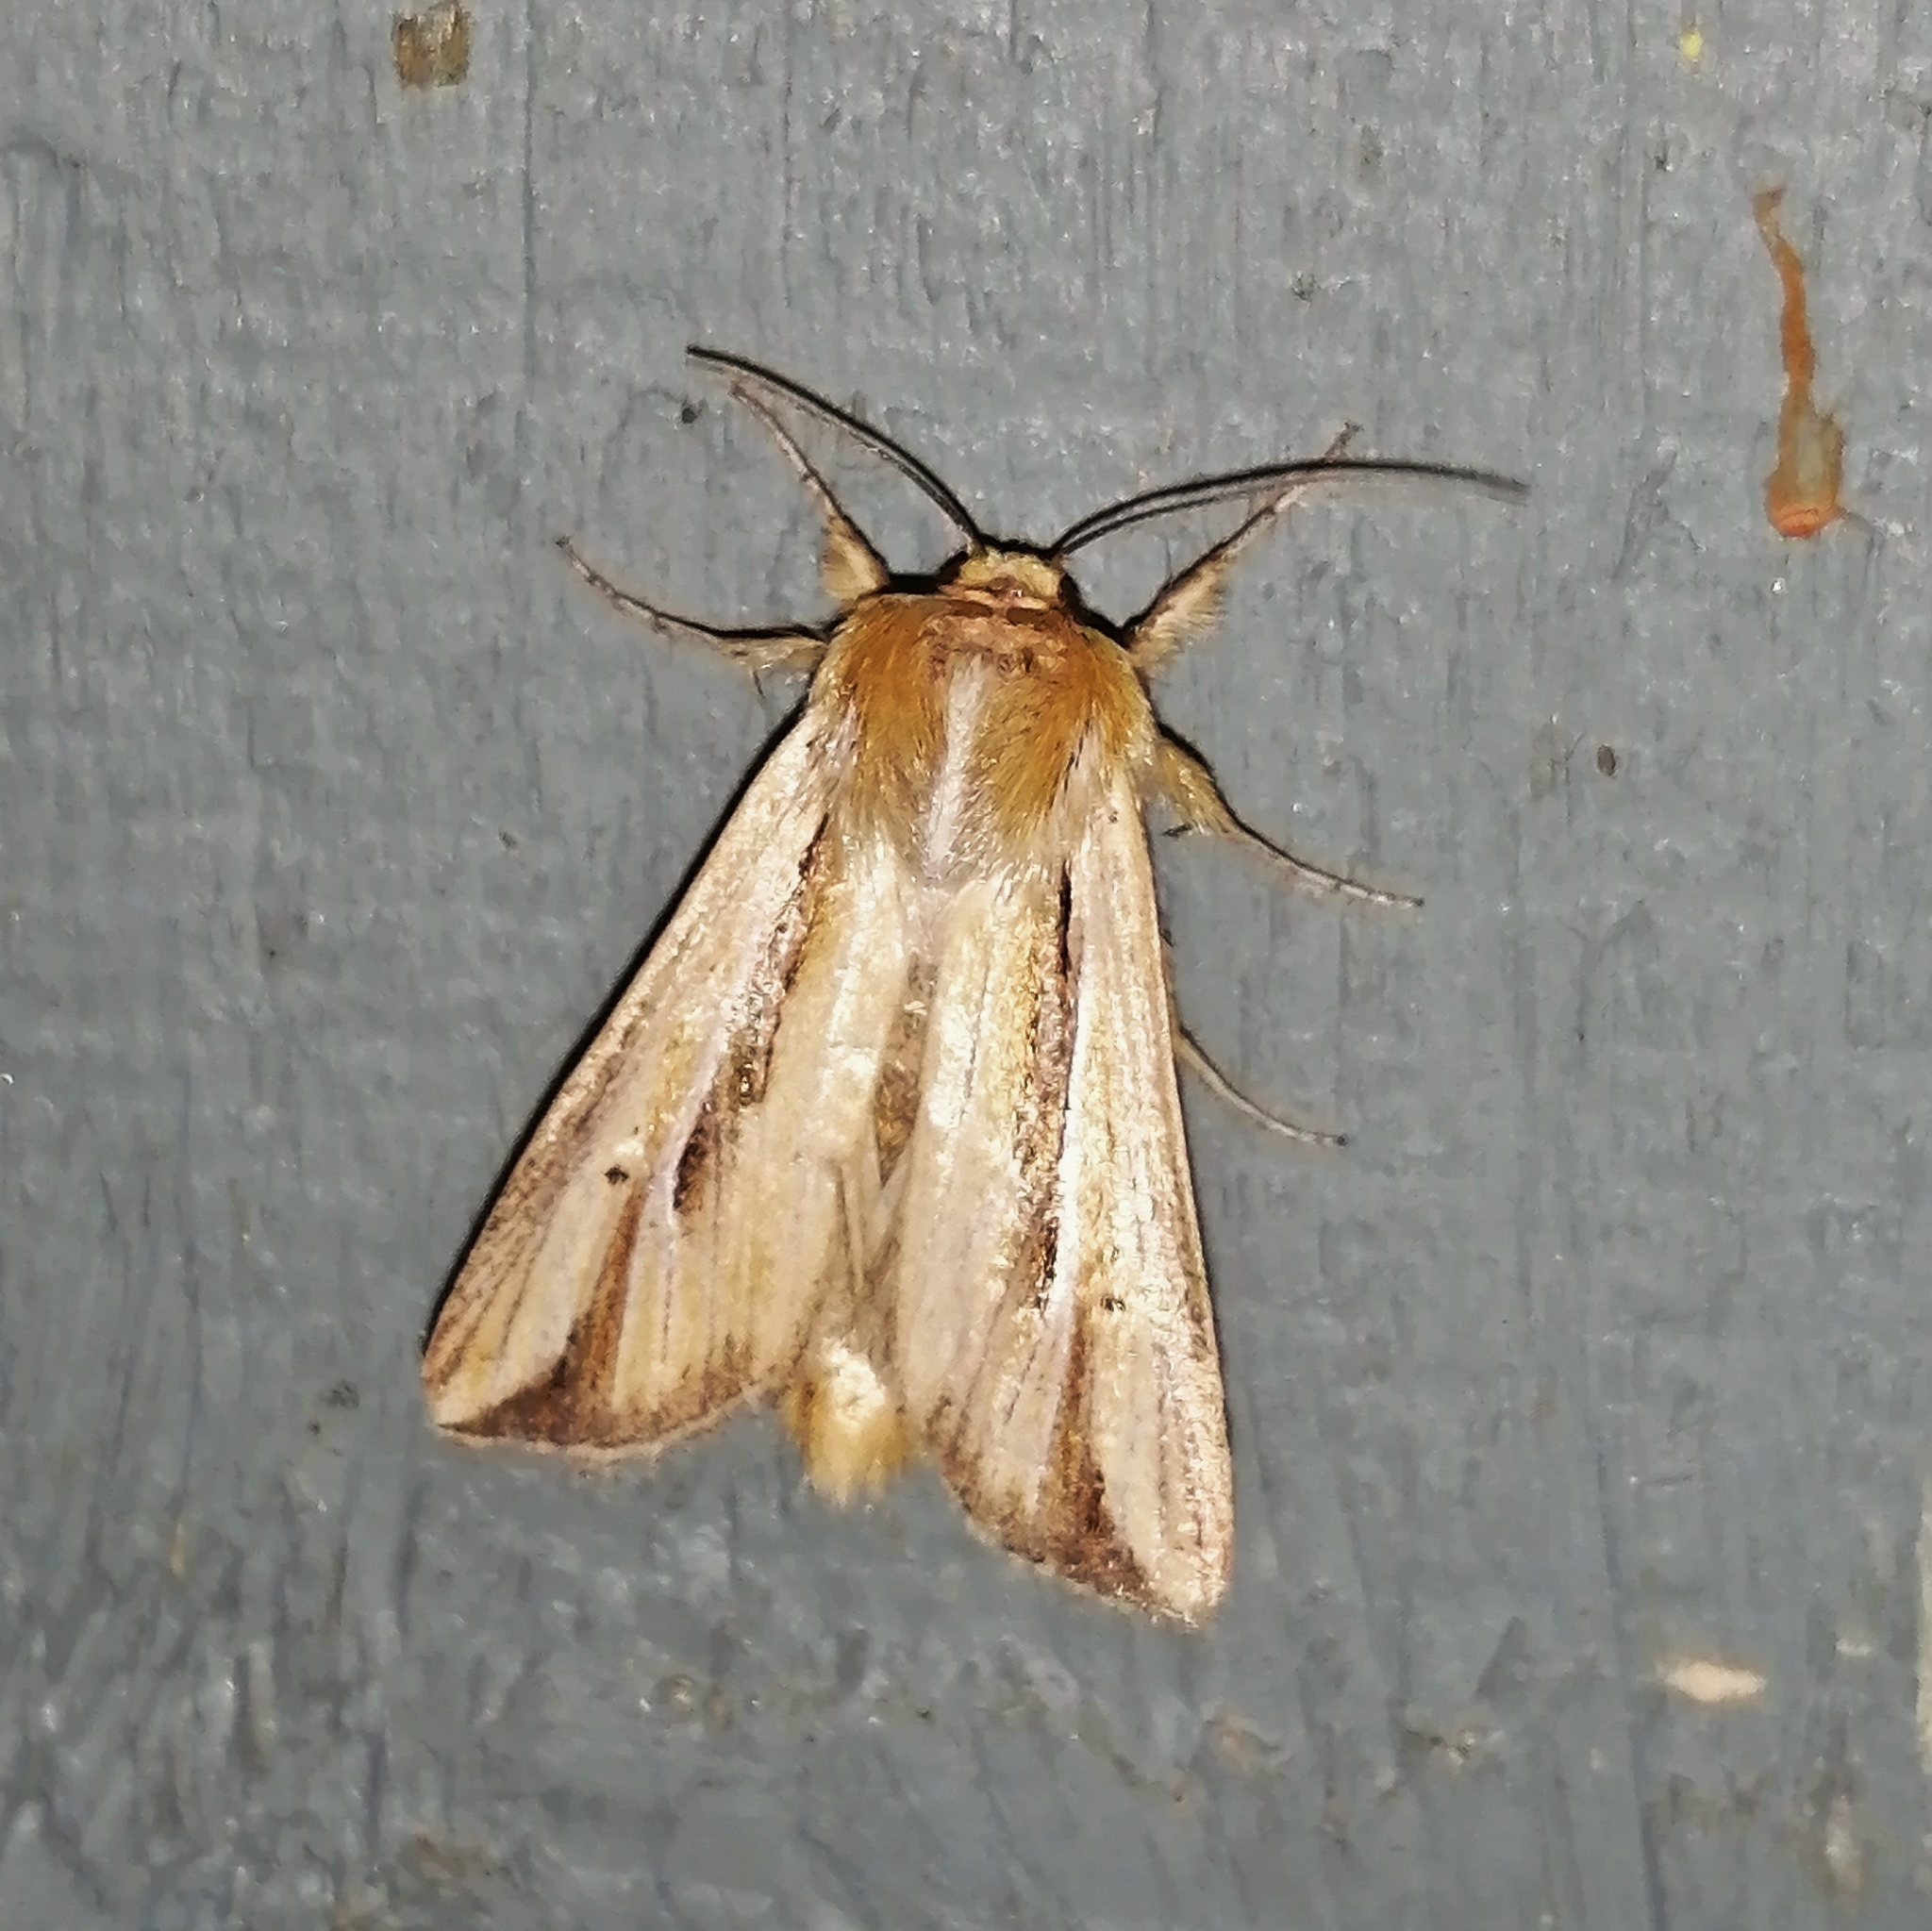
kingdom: Animalia
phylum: Arthropoda
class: Insecta
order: Lepidoptera
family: Noctuidae
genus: Dargida
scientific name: Dargida diffusa
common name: Wheat head armyworm
